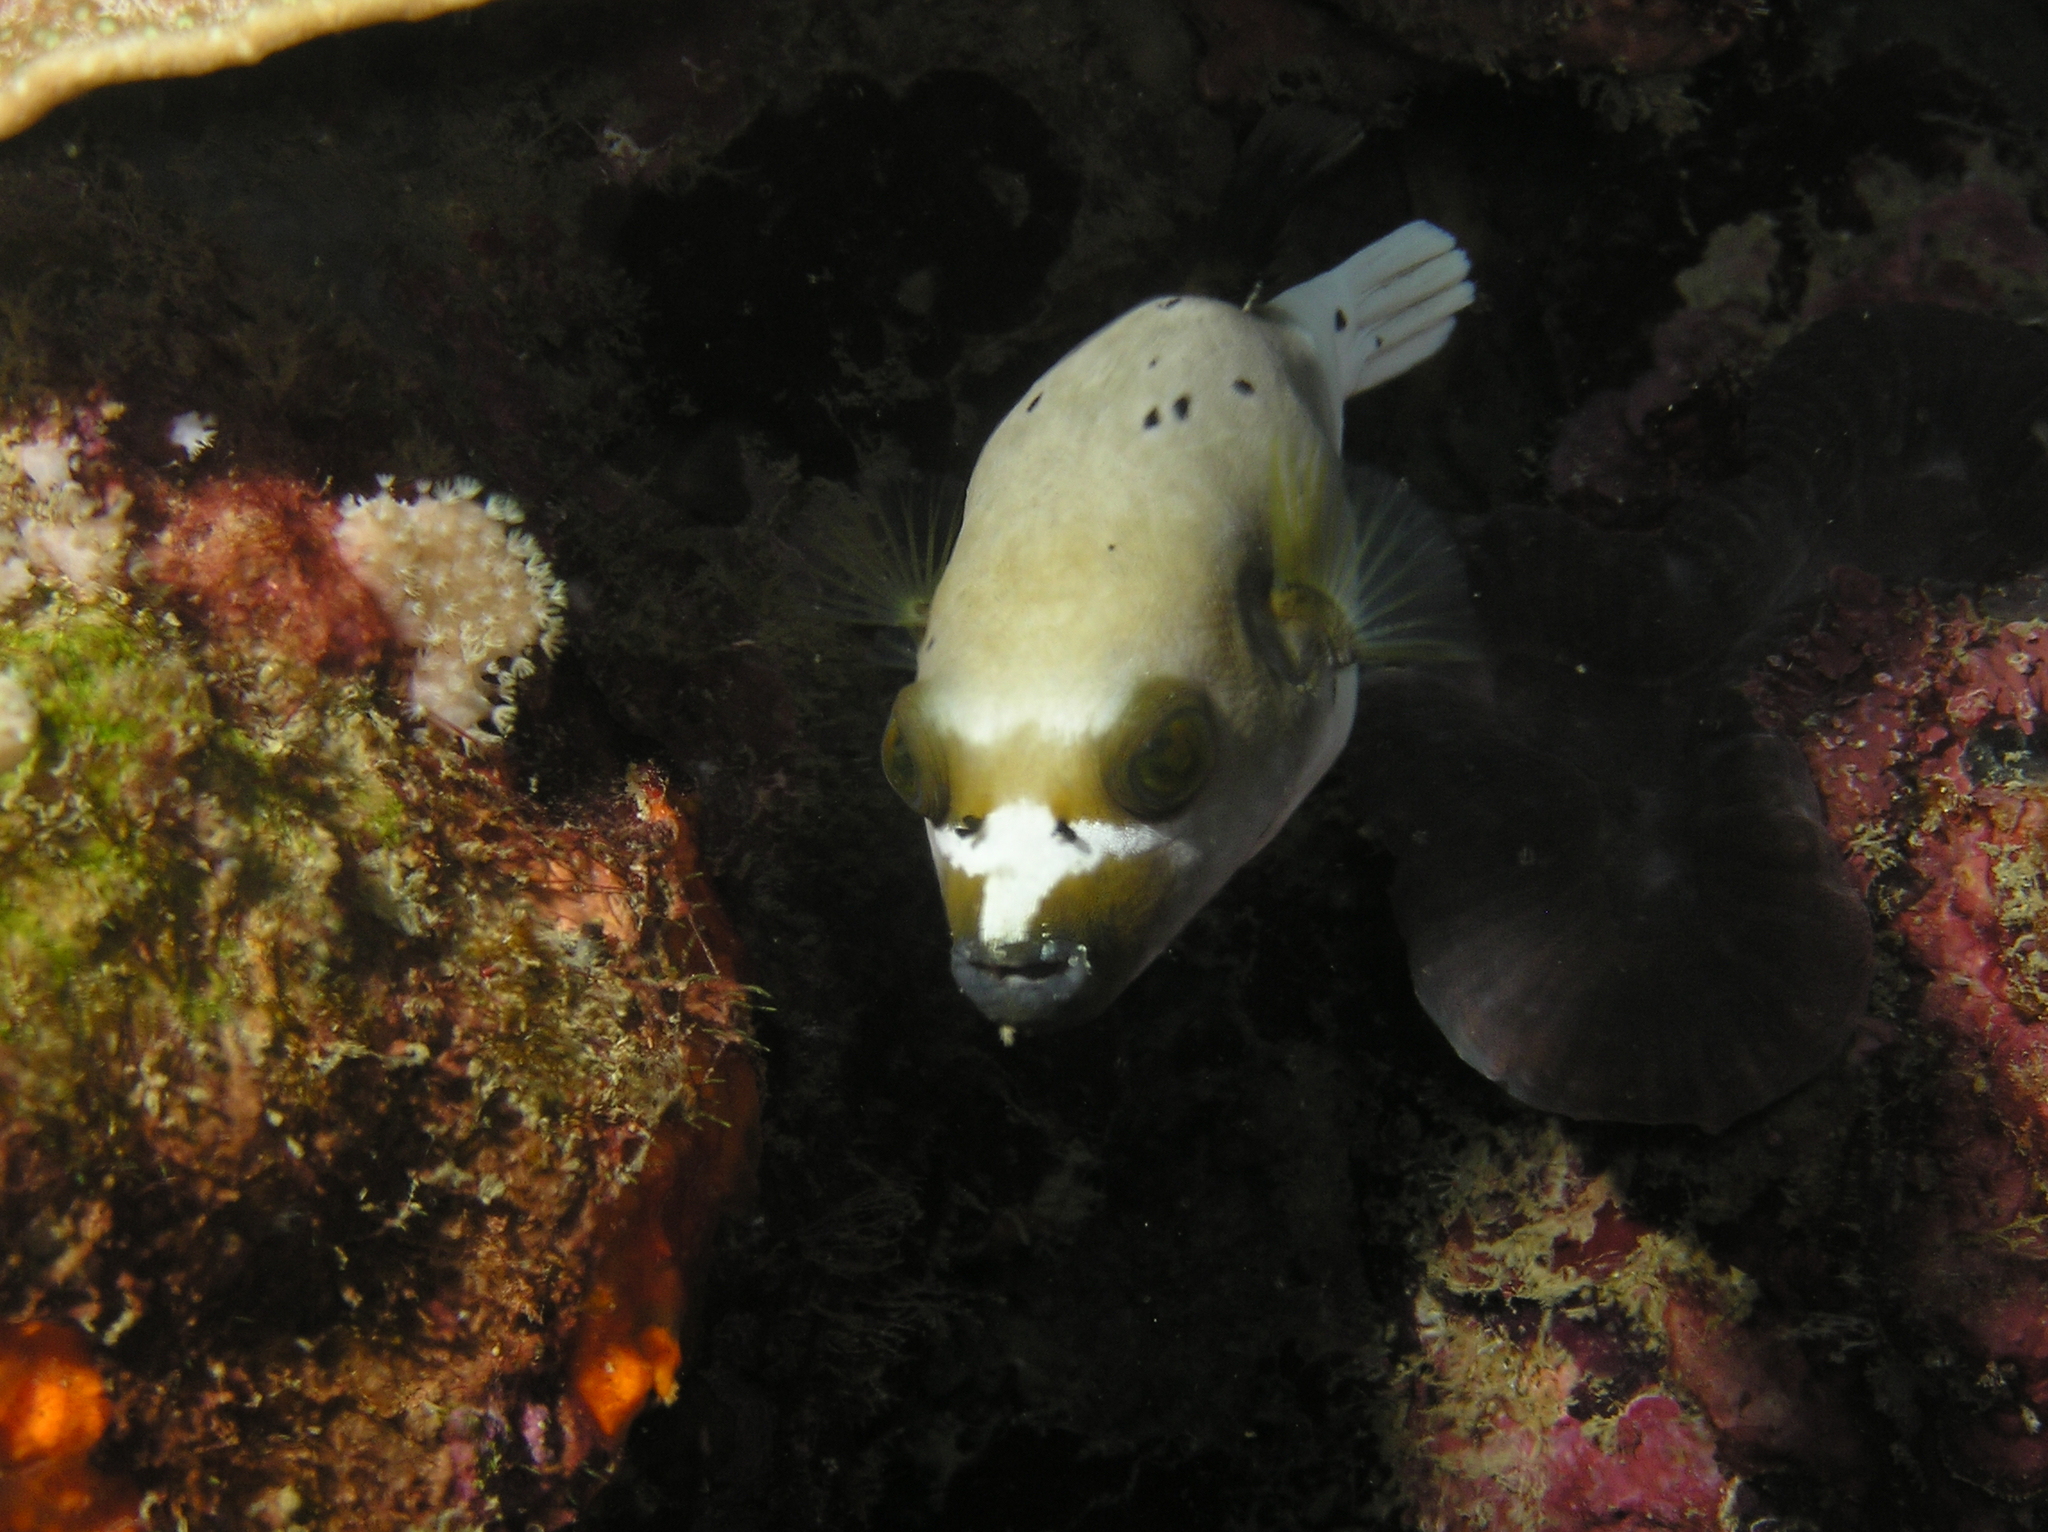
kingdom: Animalia
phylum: Chordata
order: Tetraodontiformes
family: Tetraodontidae
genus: Arothron
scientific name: Arothron nigropunctatus
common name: Black spotted blow fish
